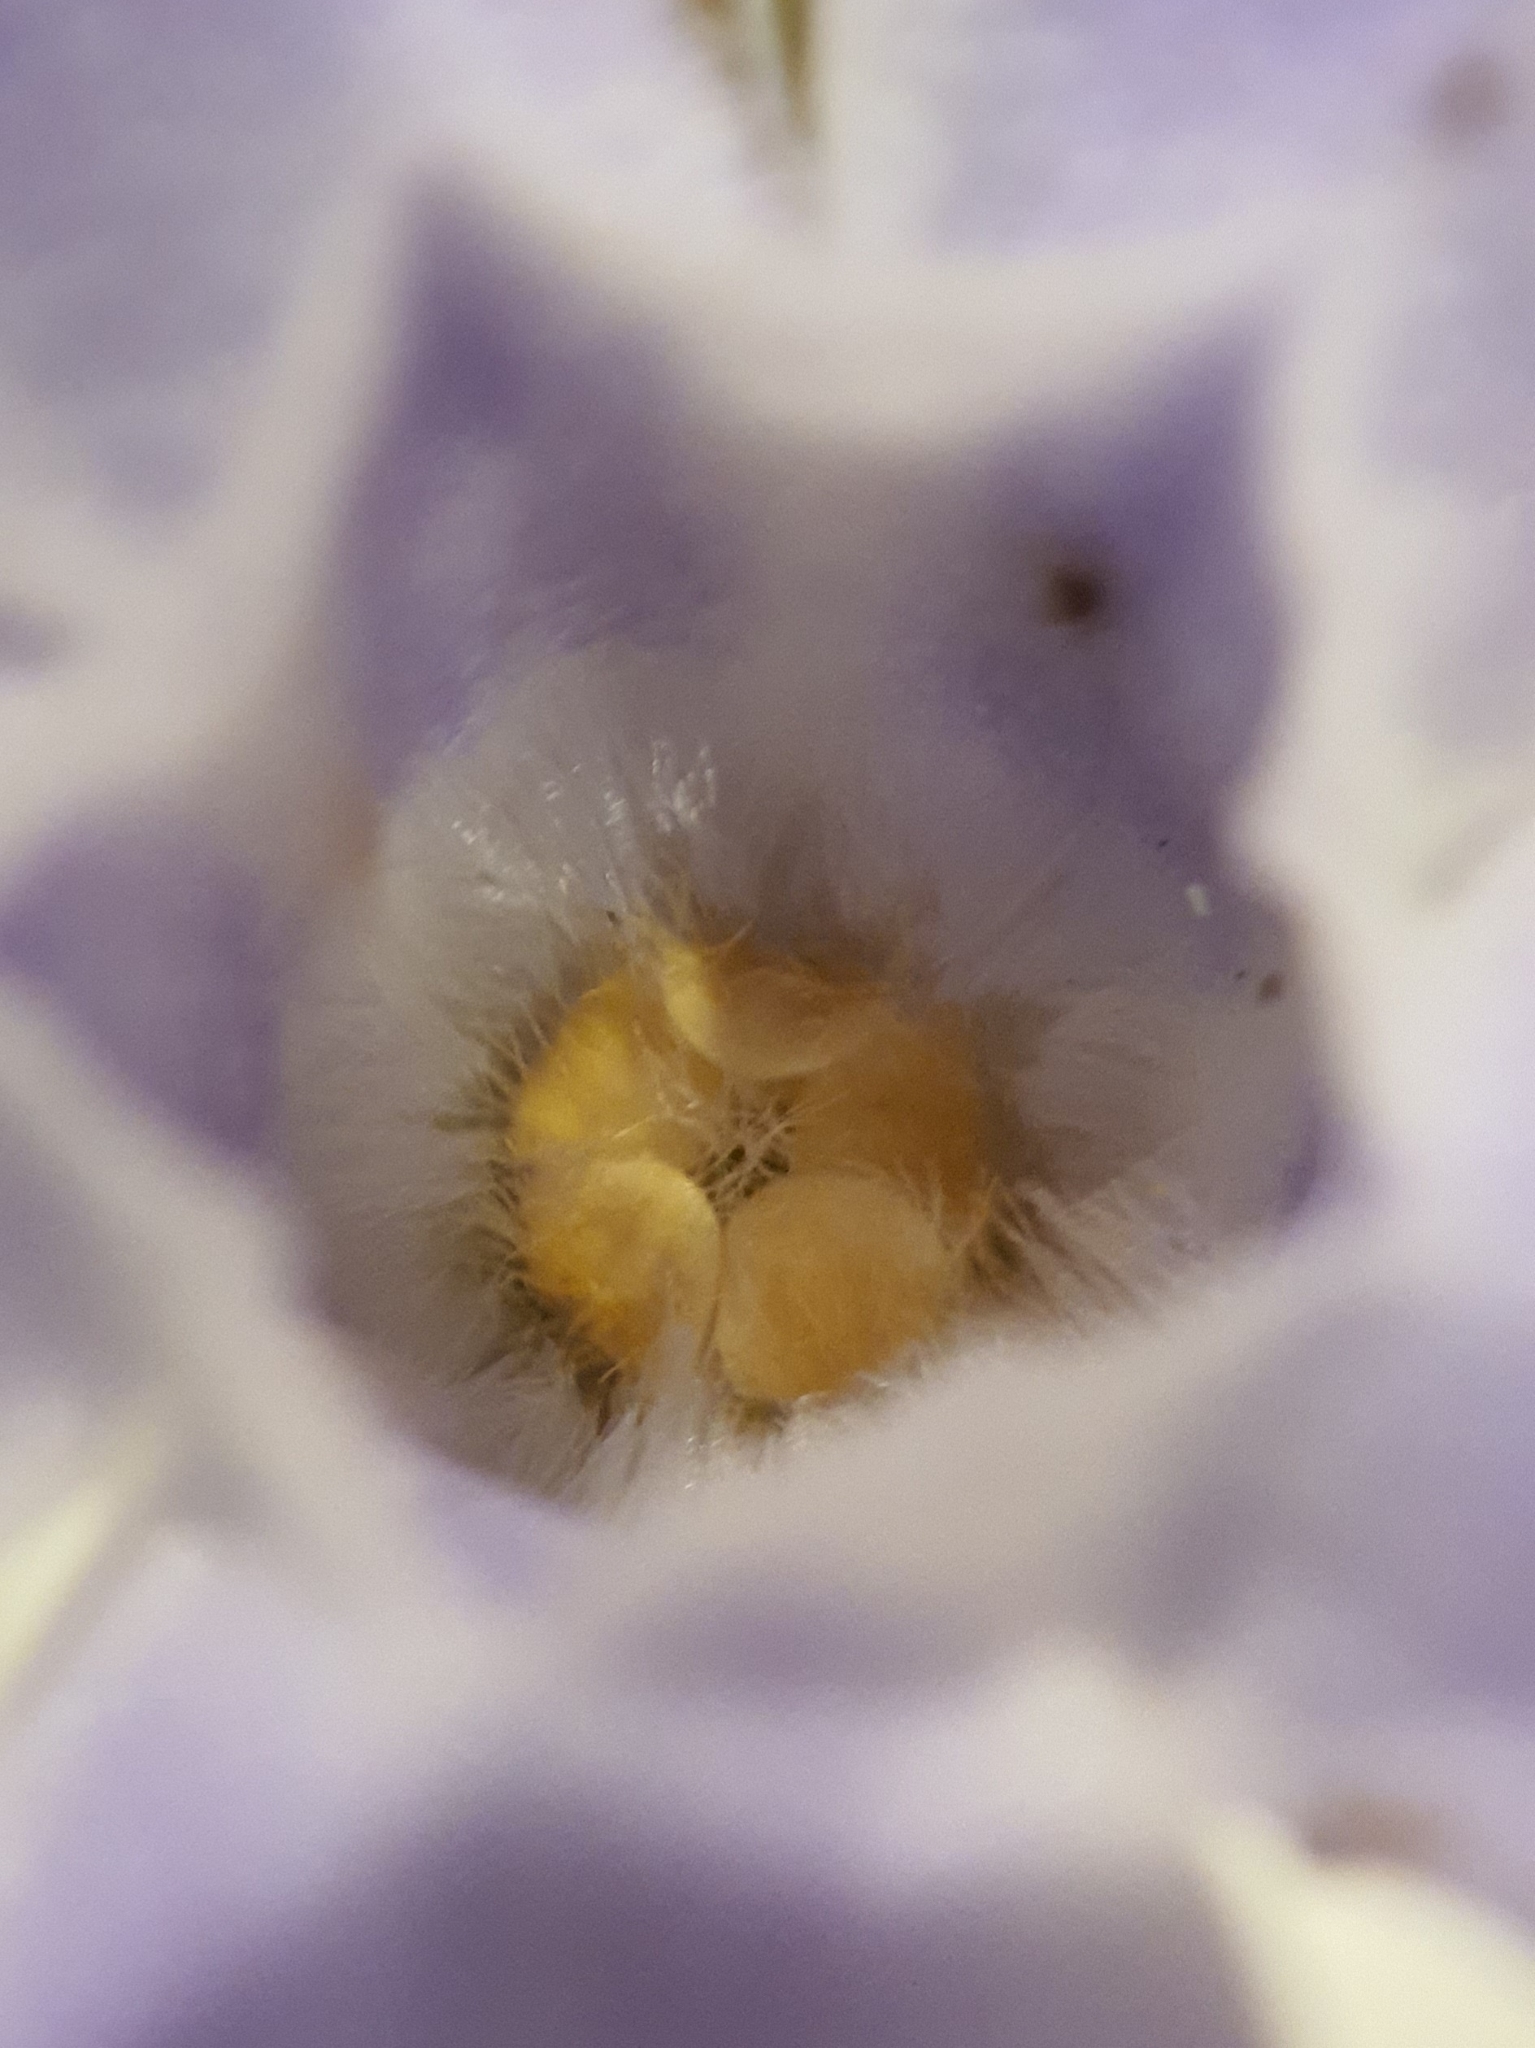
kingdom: Plantae
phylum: Tracheophyta
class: Magnoliopsida
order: Gentianales
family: Apocynaceae
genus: Vinca
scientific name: Vinca major
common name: Greater periwinkle
